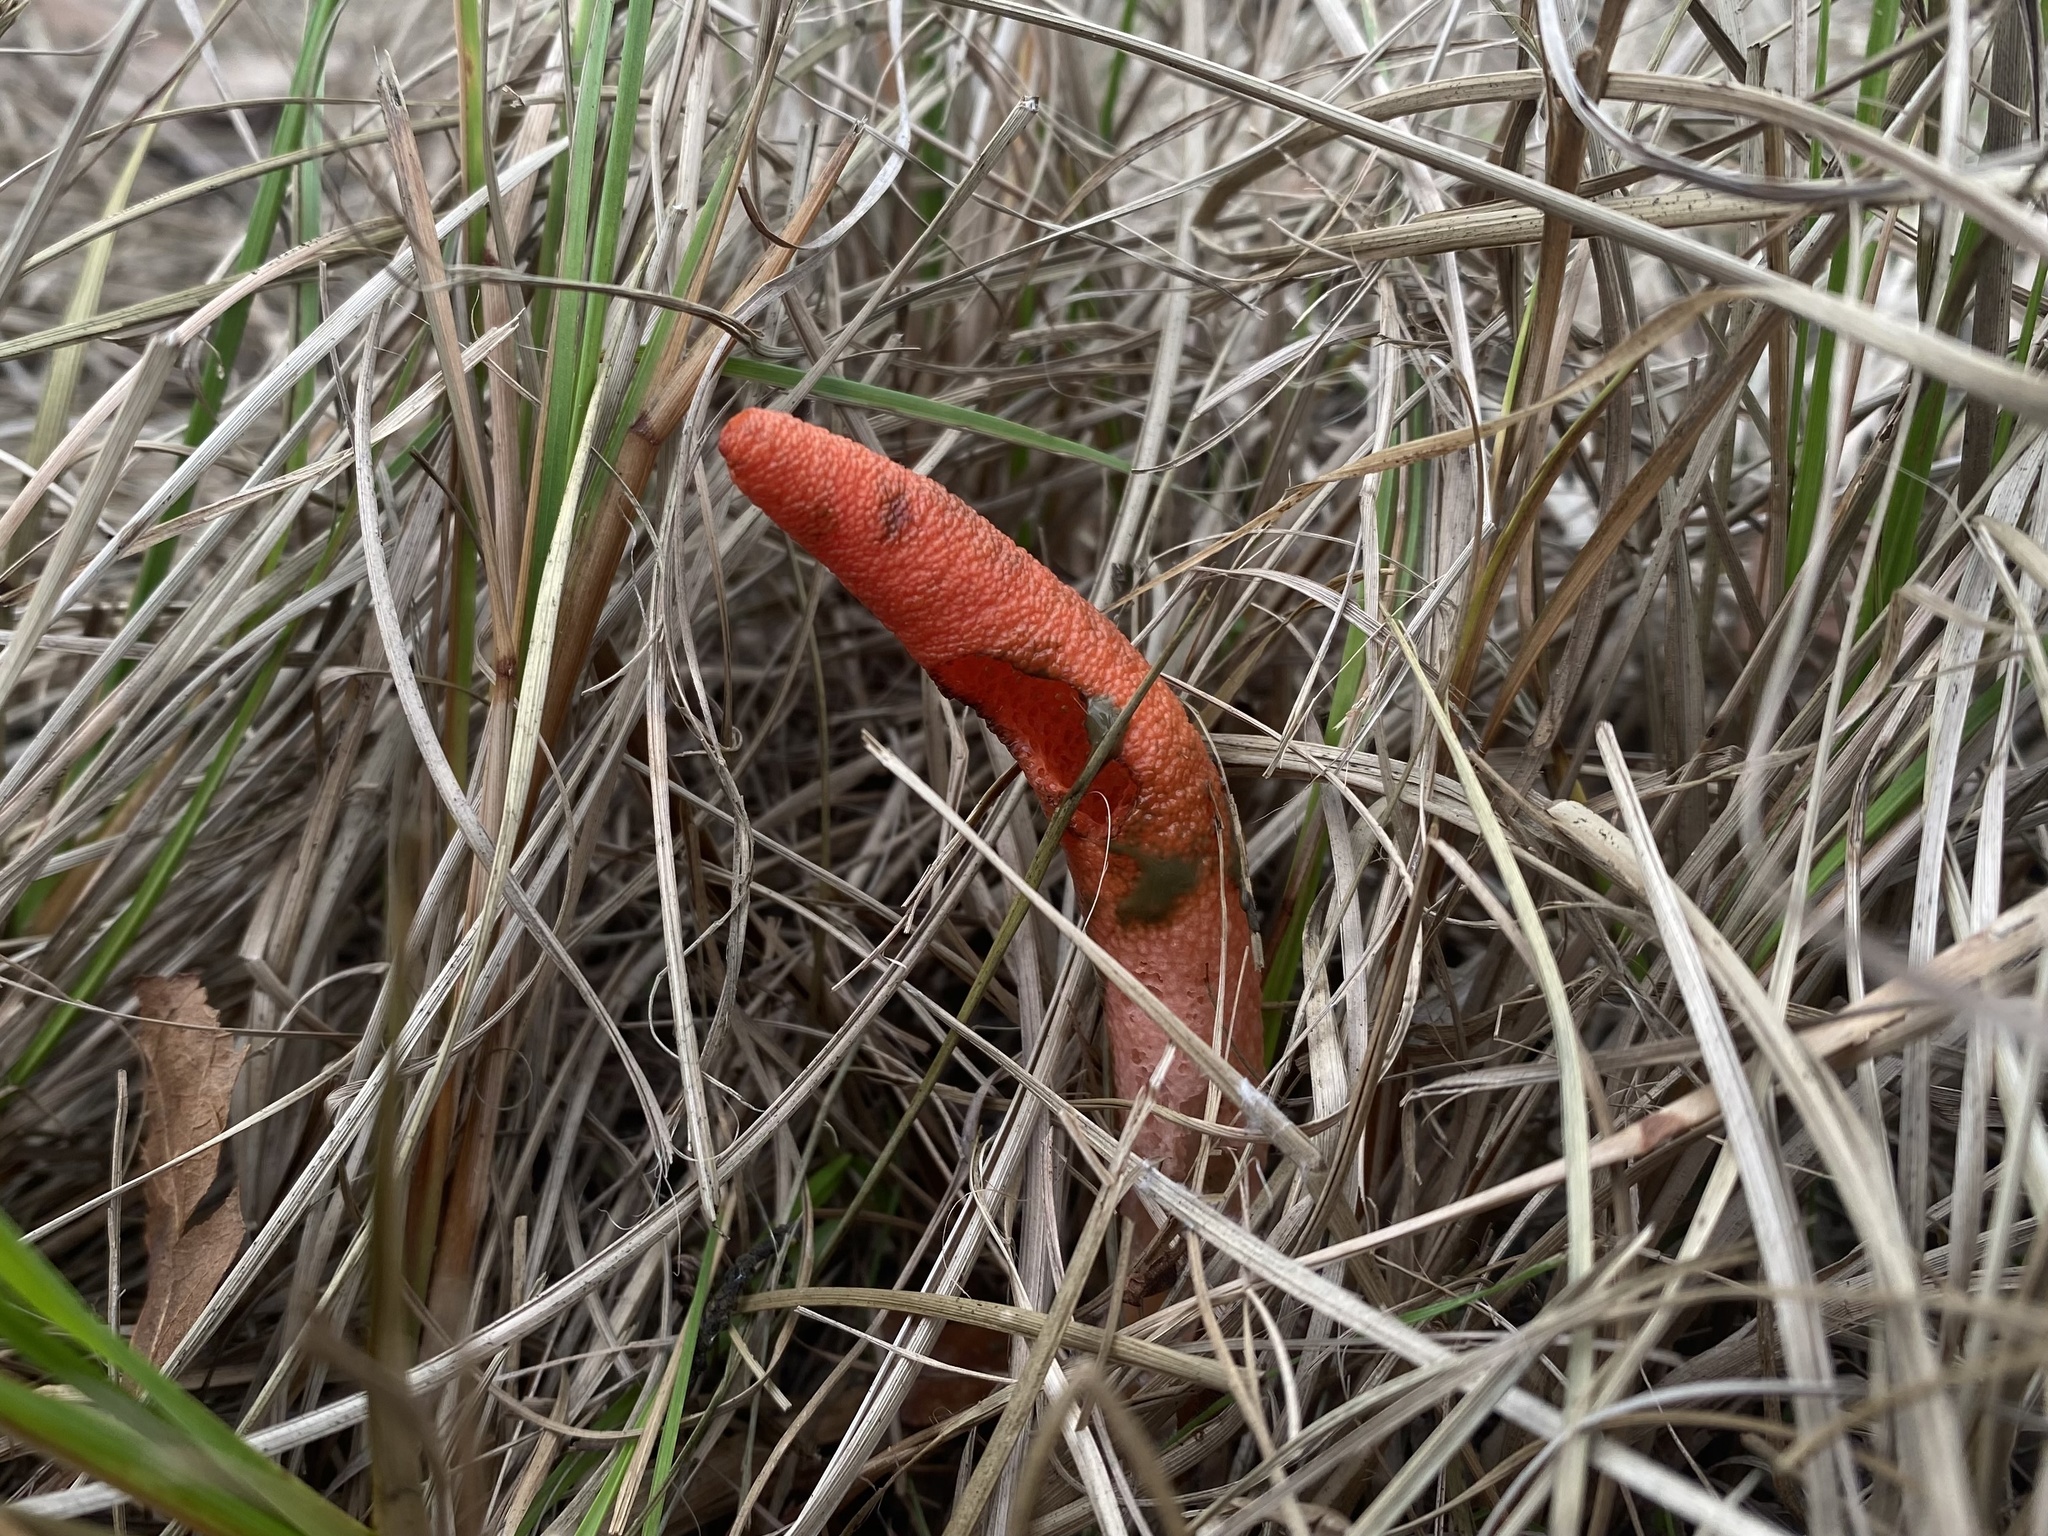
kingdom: Fungi
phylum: Basidiomycota
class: Agaricomycetes
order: Phallales
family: Phallaceae
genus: Mutinus
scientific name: Mutinus elegans
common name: Devil's dipstick
